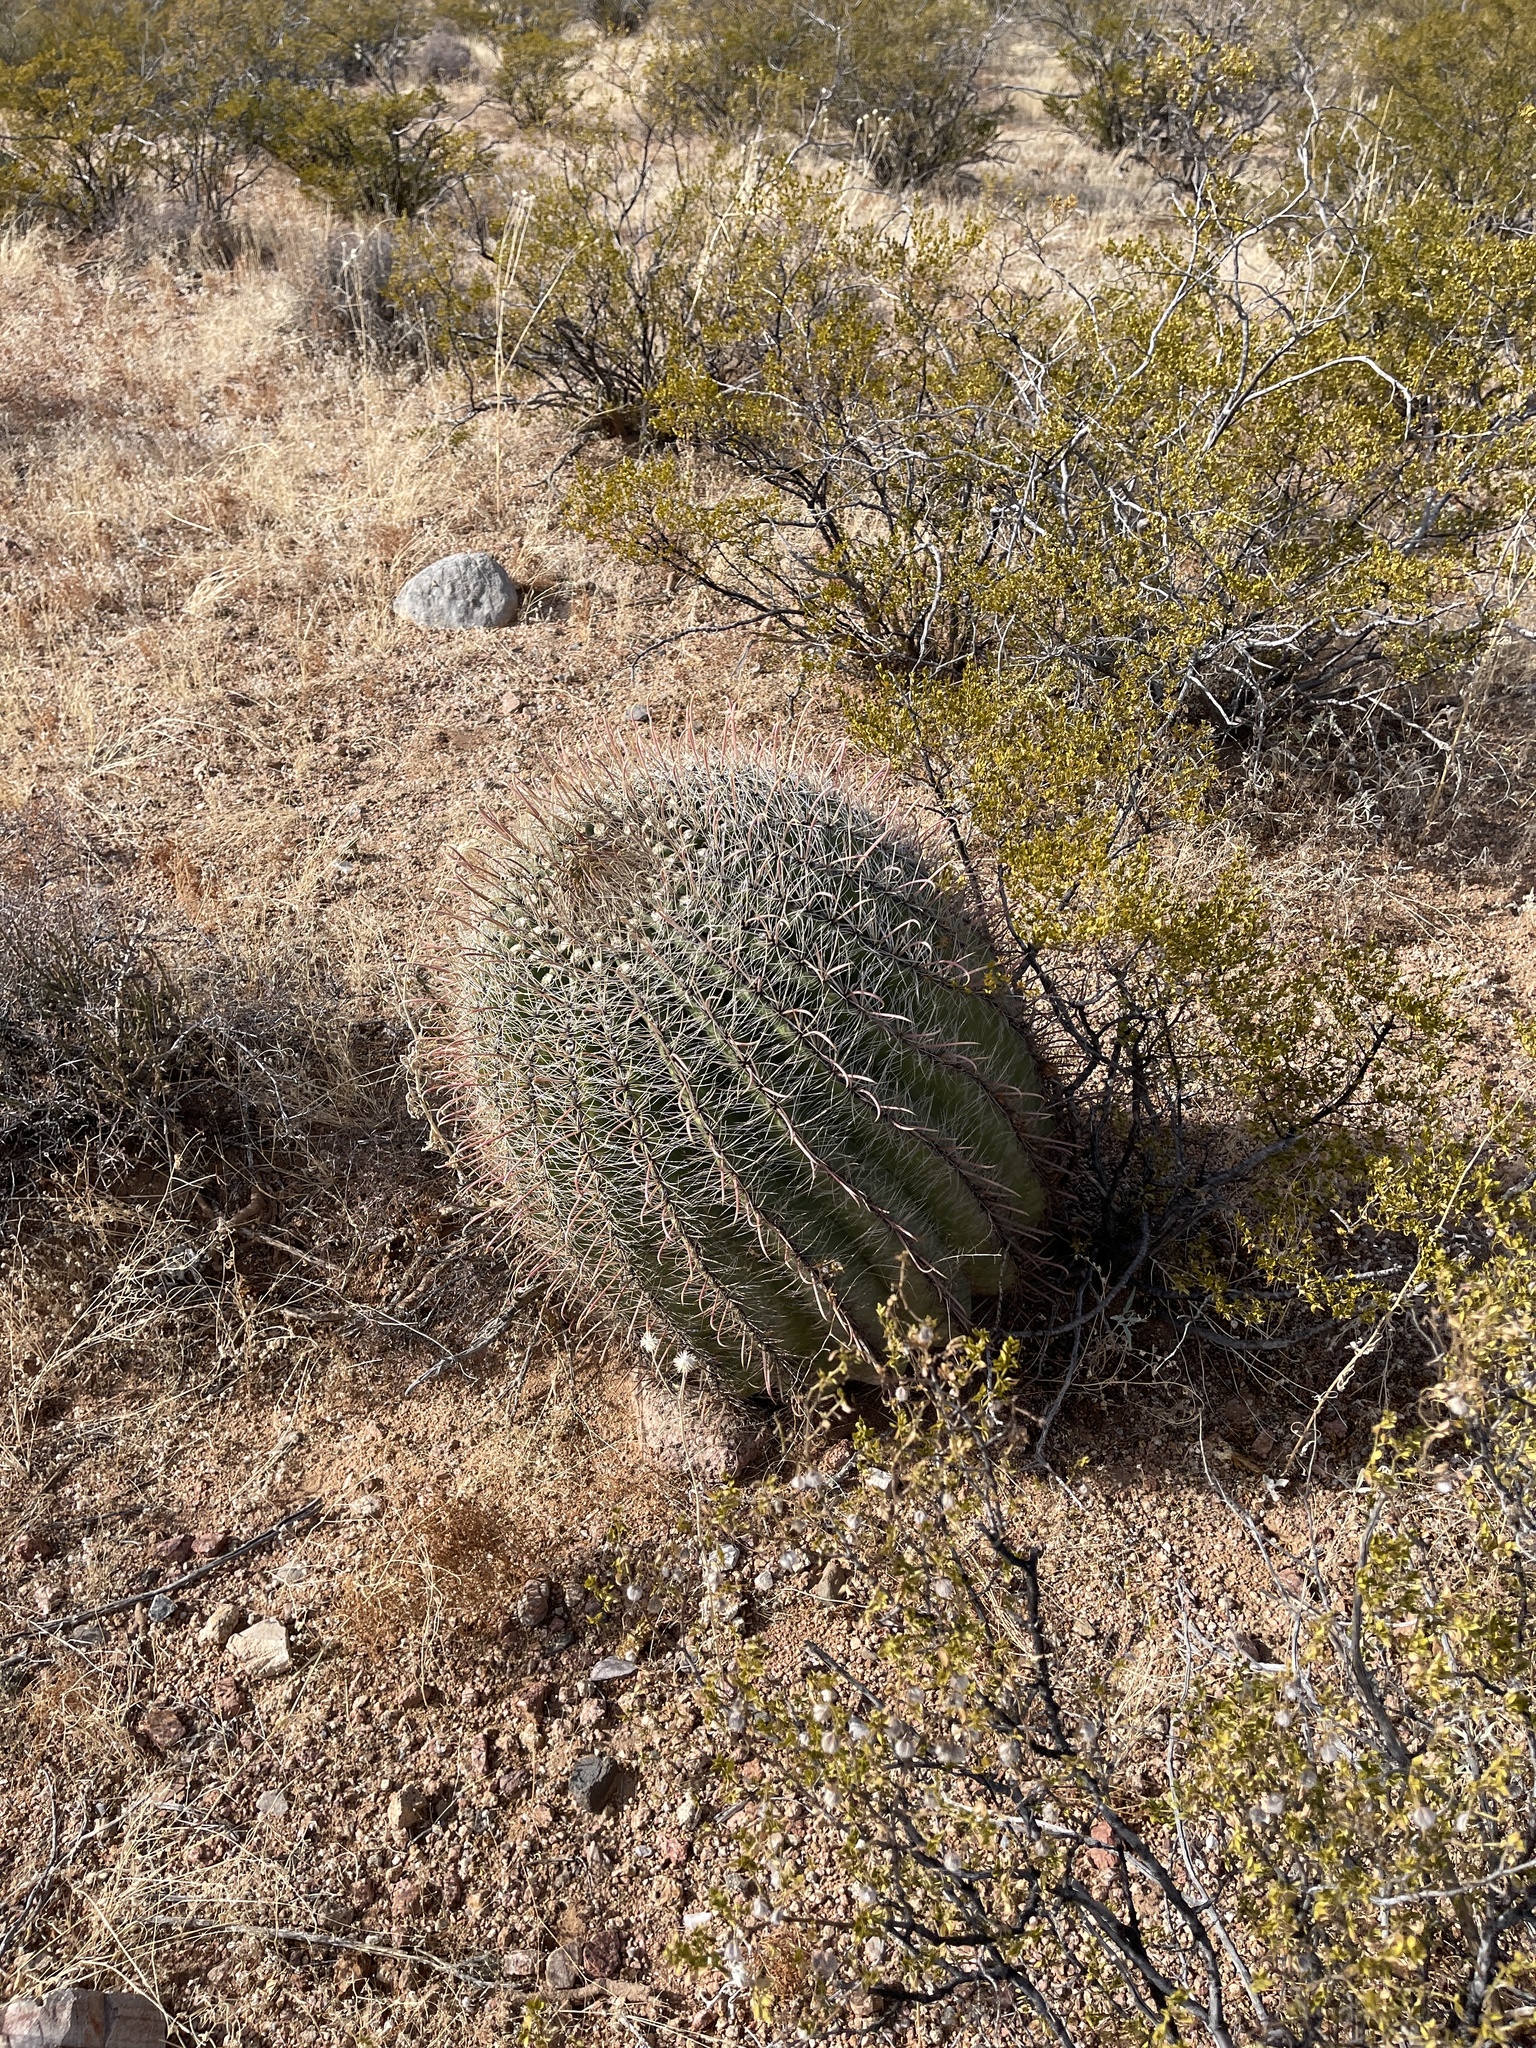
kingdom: Plantae
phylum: Tracheophyta
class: Magnoliopsida
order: Caryophyllales
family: Cactaceae
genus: Ferocactus
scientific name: Ferocactus wislizeni
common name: Candy barrel cactus
